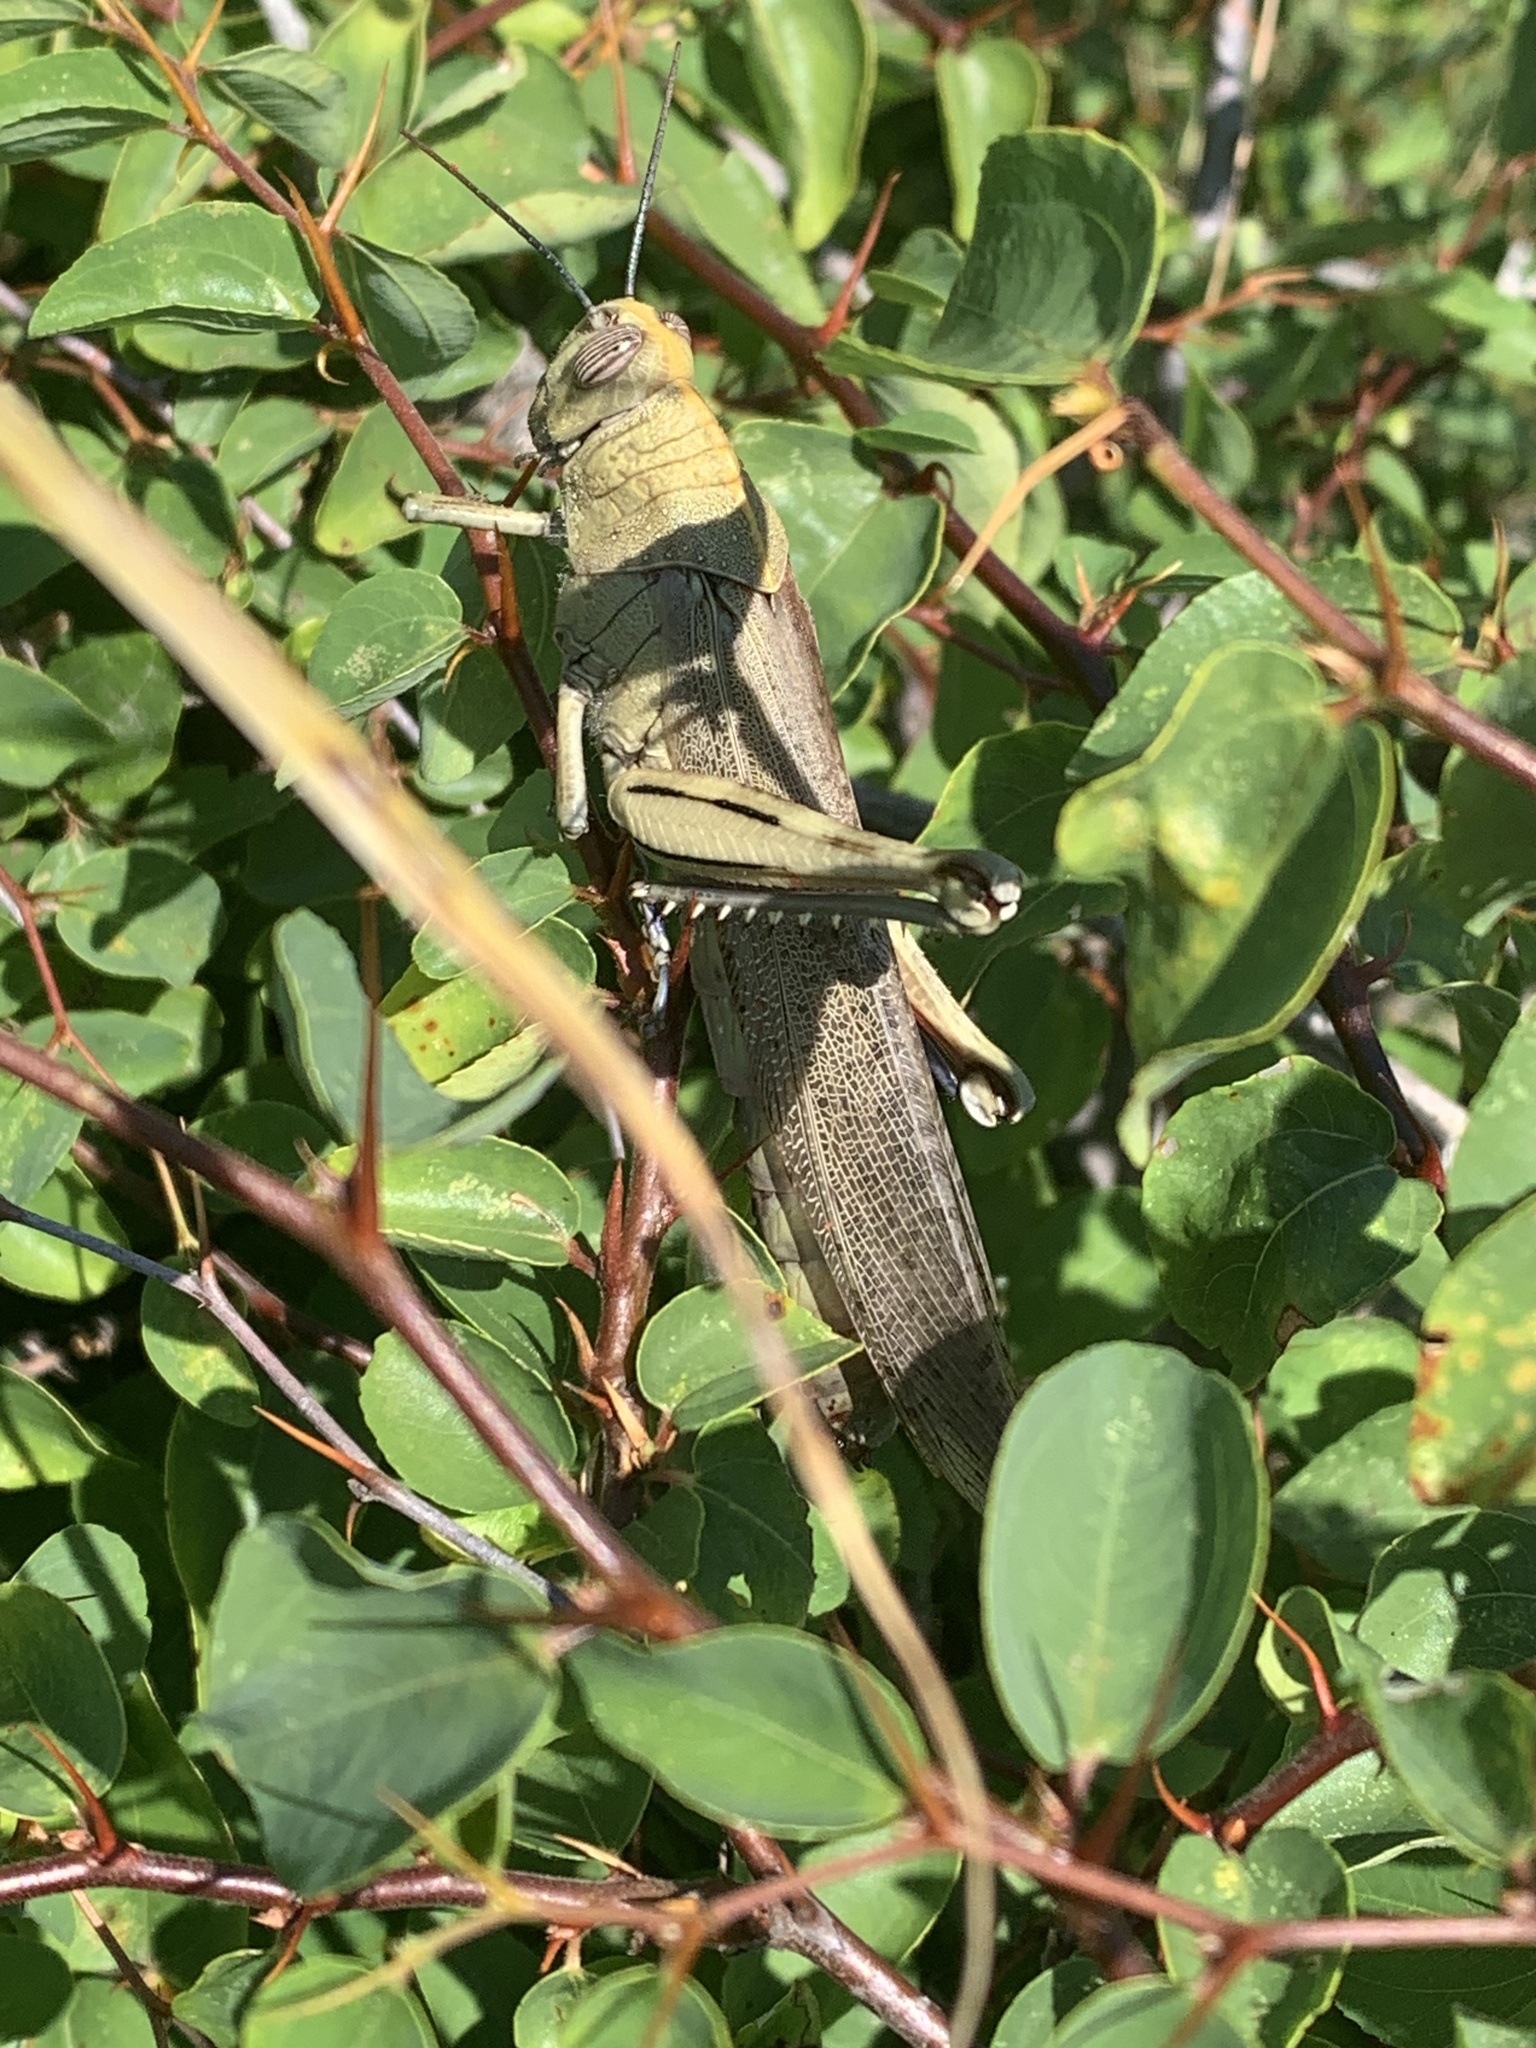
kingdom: Animalia
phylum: Arthropoda
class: Insecta
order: Orthoptera
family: Acrididae
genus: Anacridium
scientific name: Anacridium aegyptium
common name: Egyptian grasshopper
